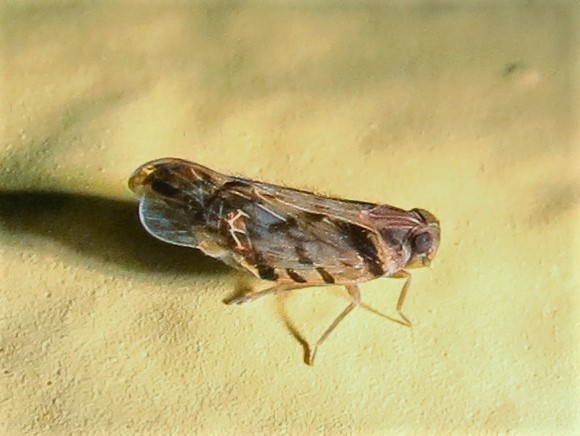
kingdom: Animalia
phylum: Arthropoda
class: Insecta
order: Hemiptera
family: Cixiidae
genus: Pintalia
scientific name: Pintalia alta
